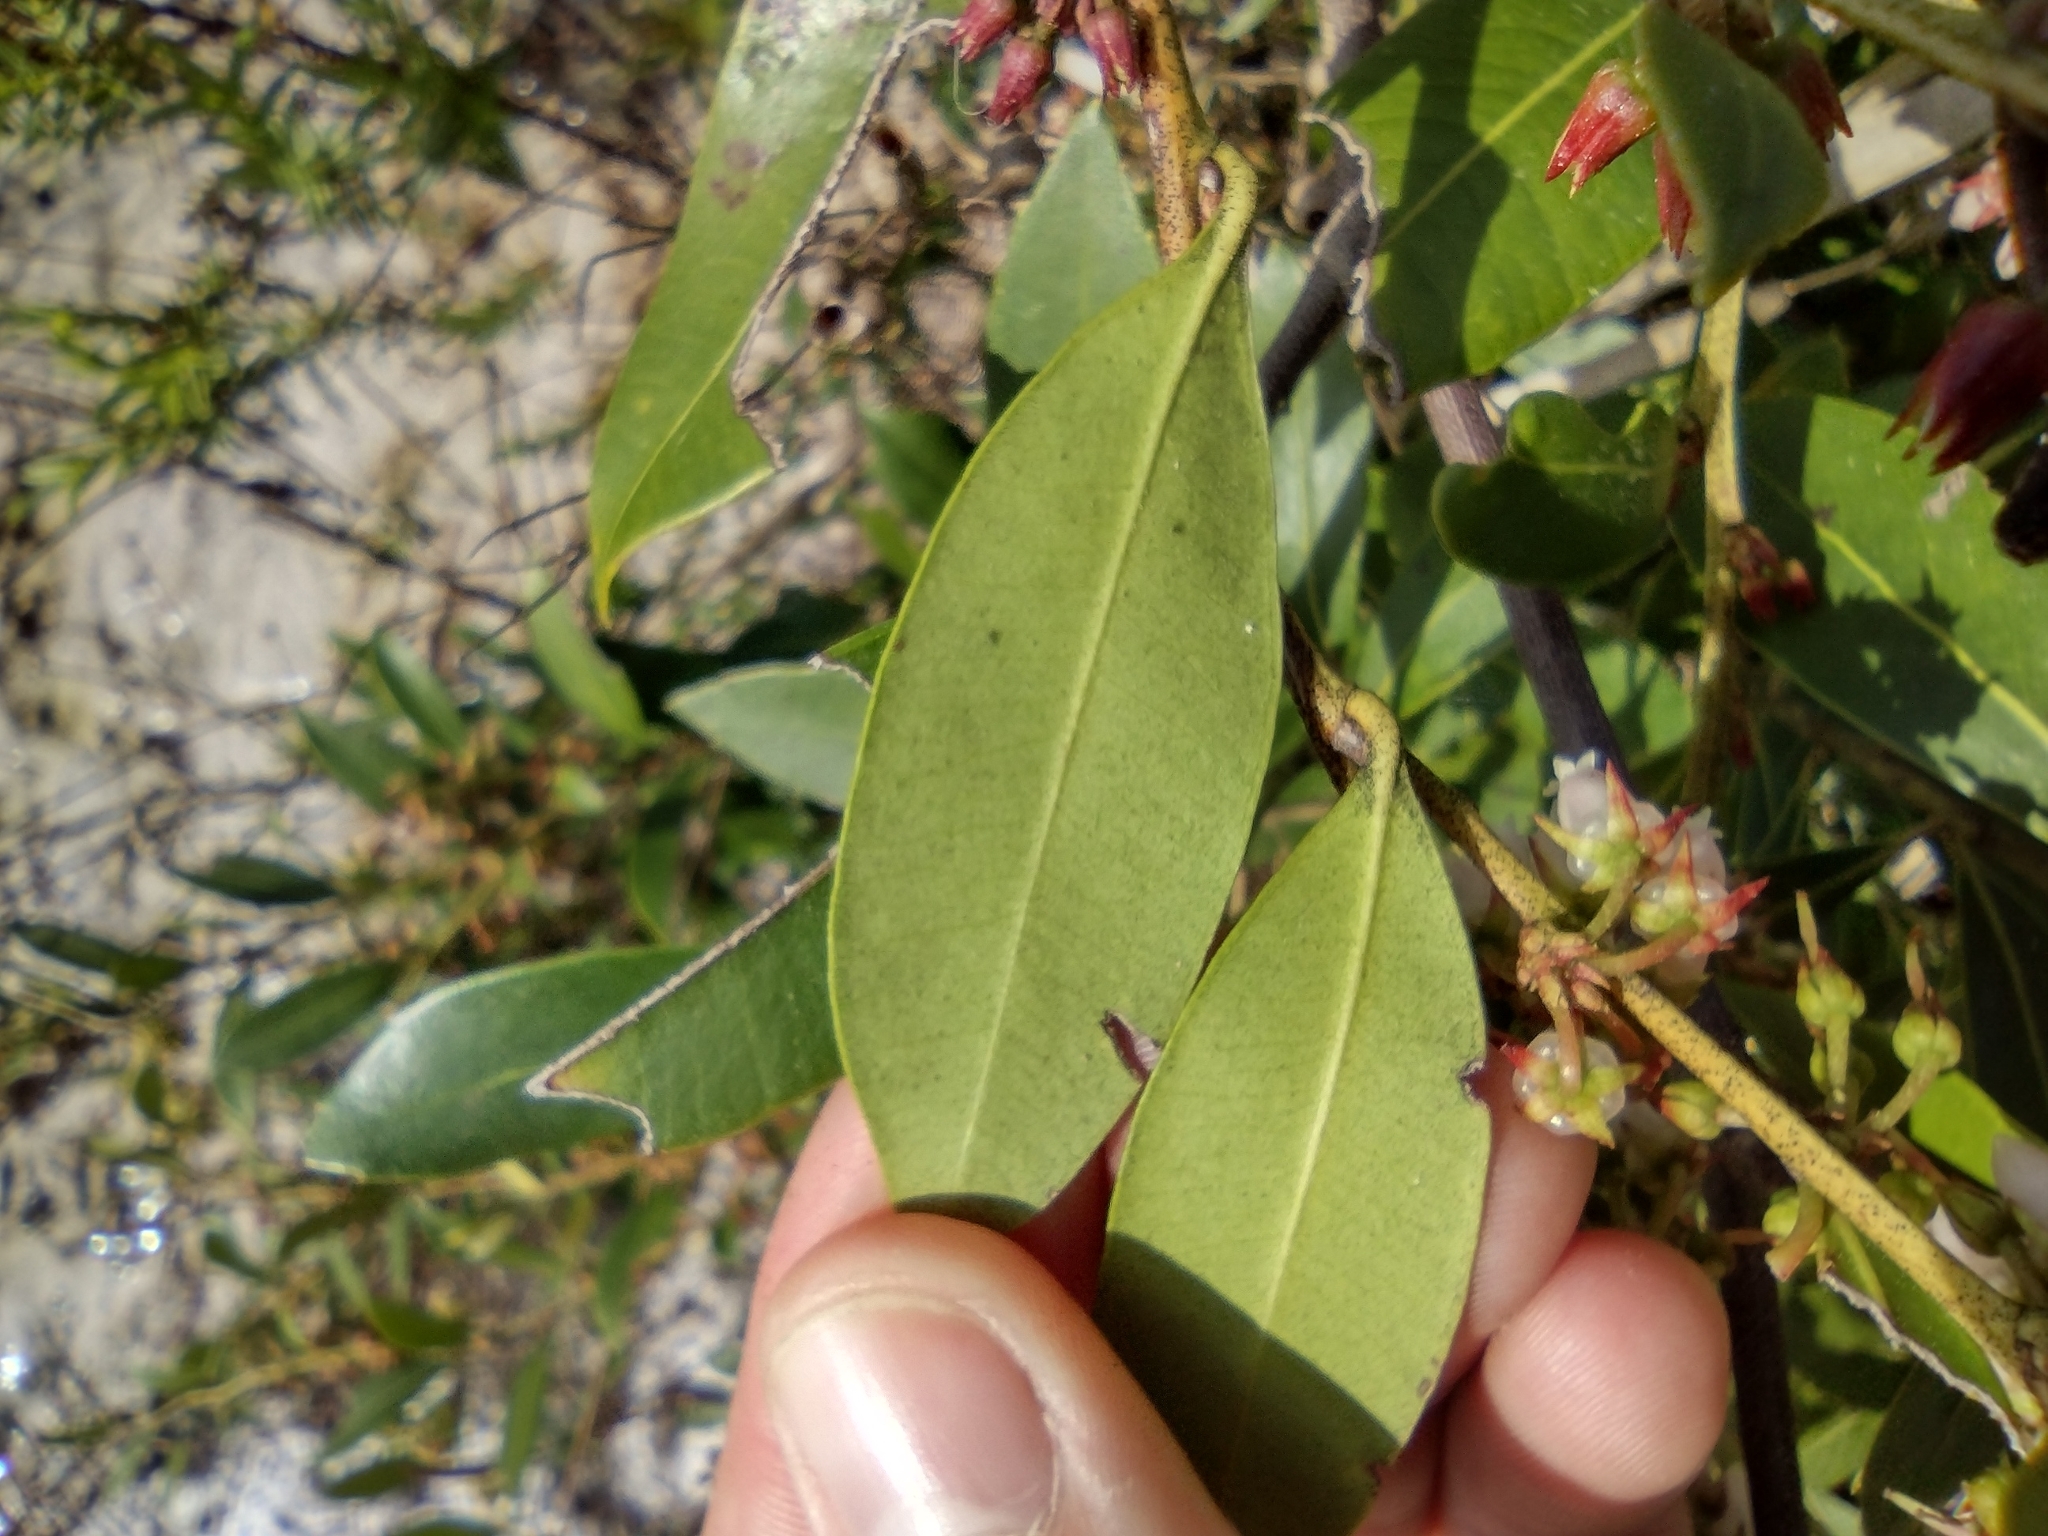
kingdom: Plantae
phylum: Tracheophyta
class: Magnoliopsida
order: Ericales
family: Ericaceae
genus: Lyonia
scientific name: Lyonia lucida
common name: Fetterbush
